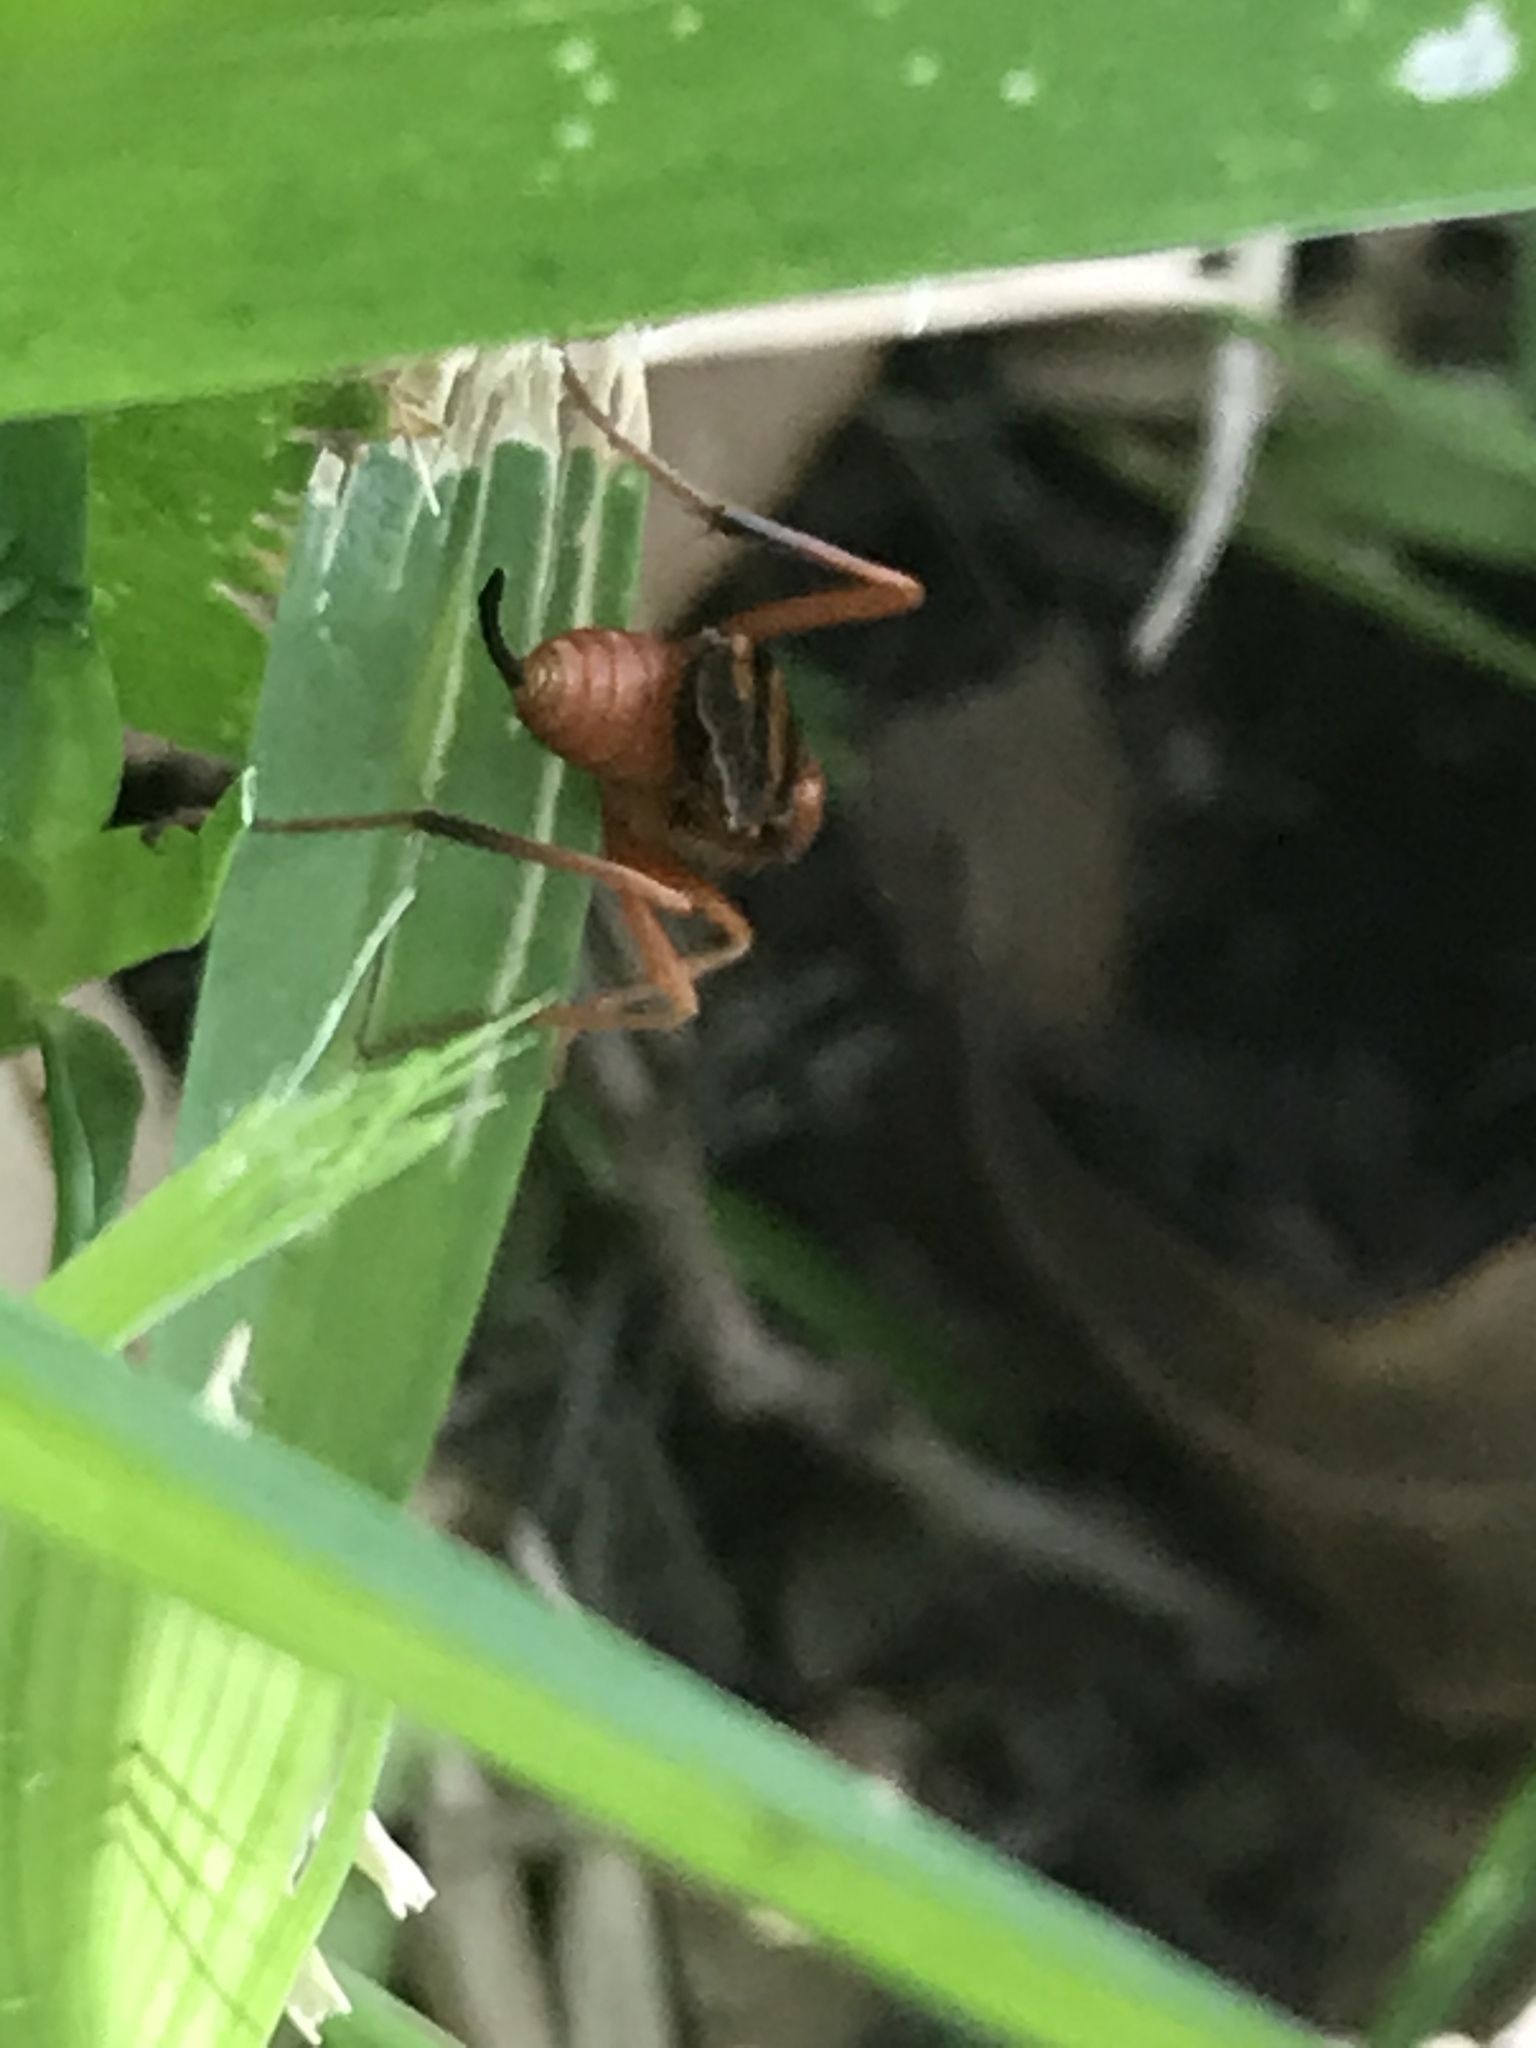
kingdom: Animalia
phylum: Arthropoda
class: Insecta
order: Hymenoptera
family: Ichneumonidae
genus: Compsocryptus
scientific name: Compsocryptus texensis
